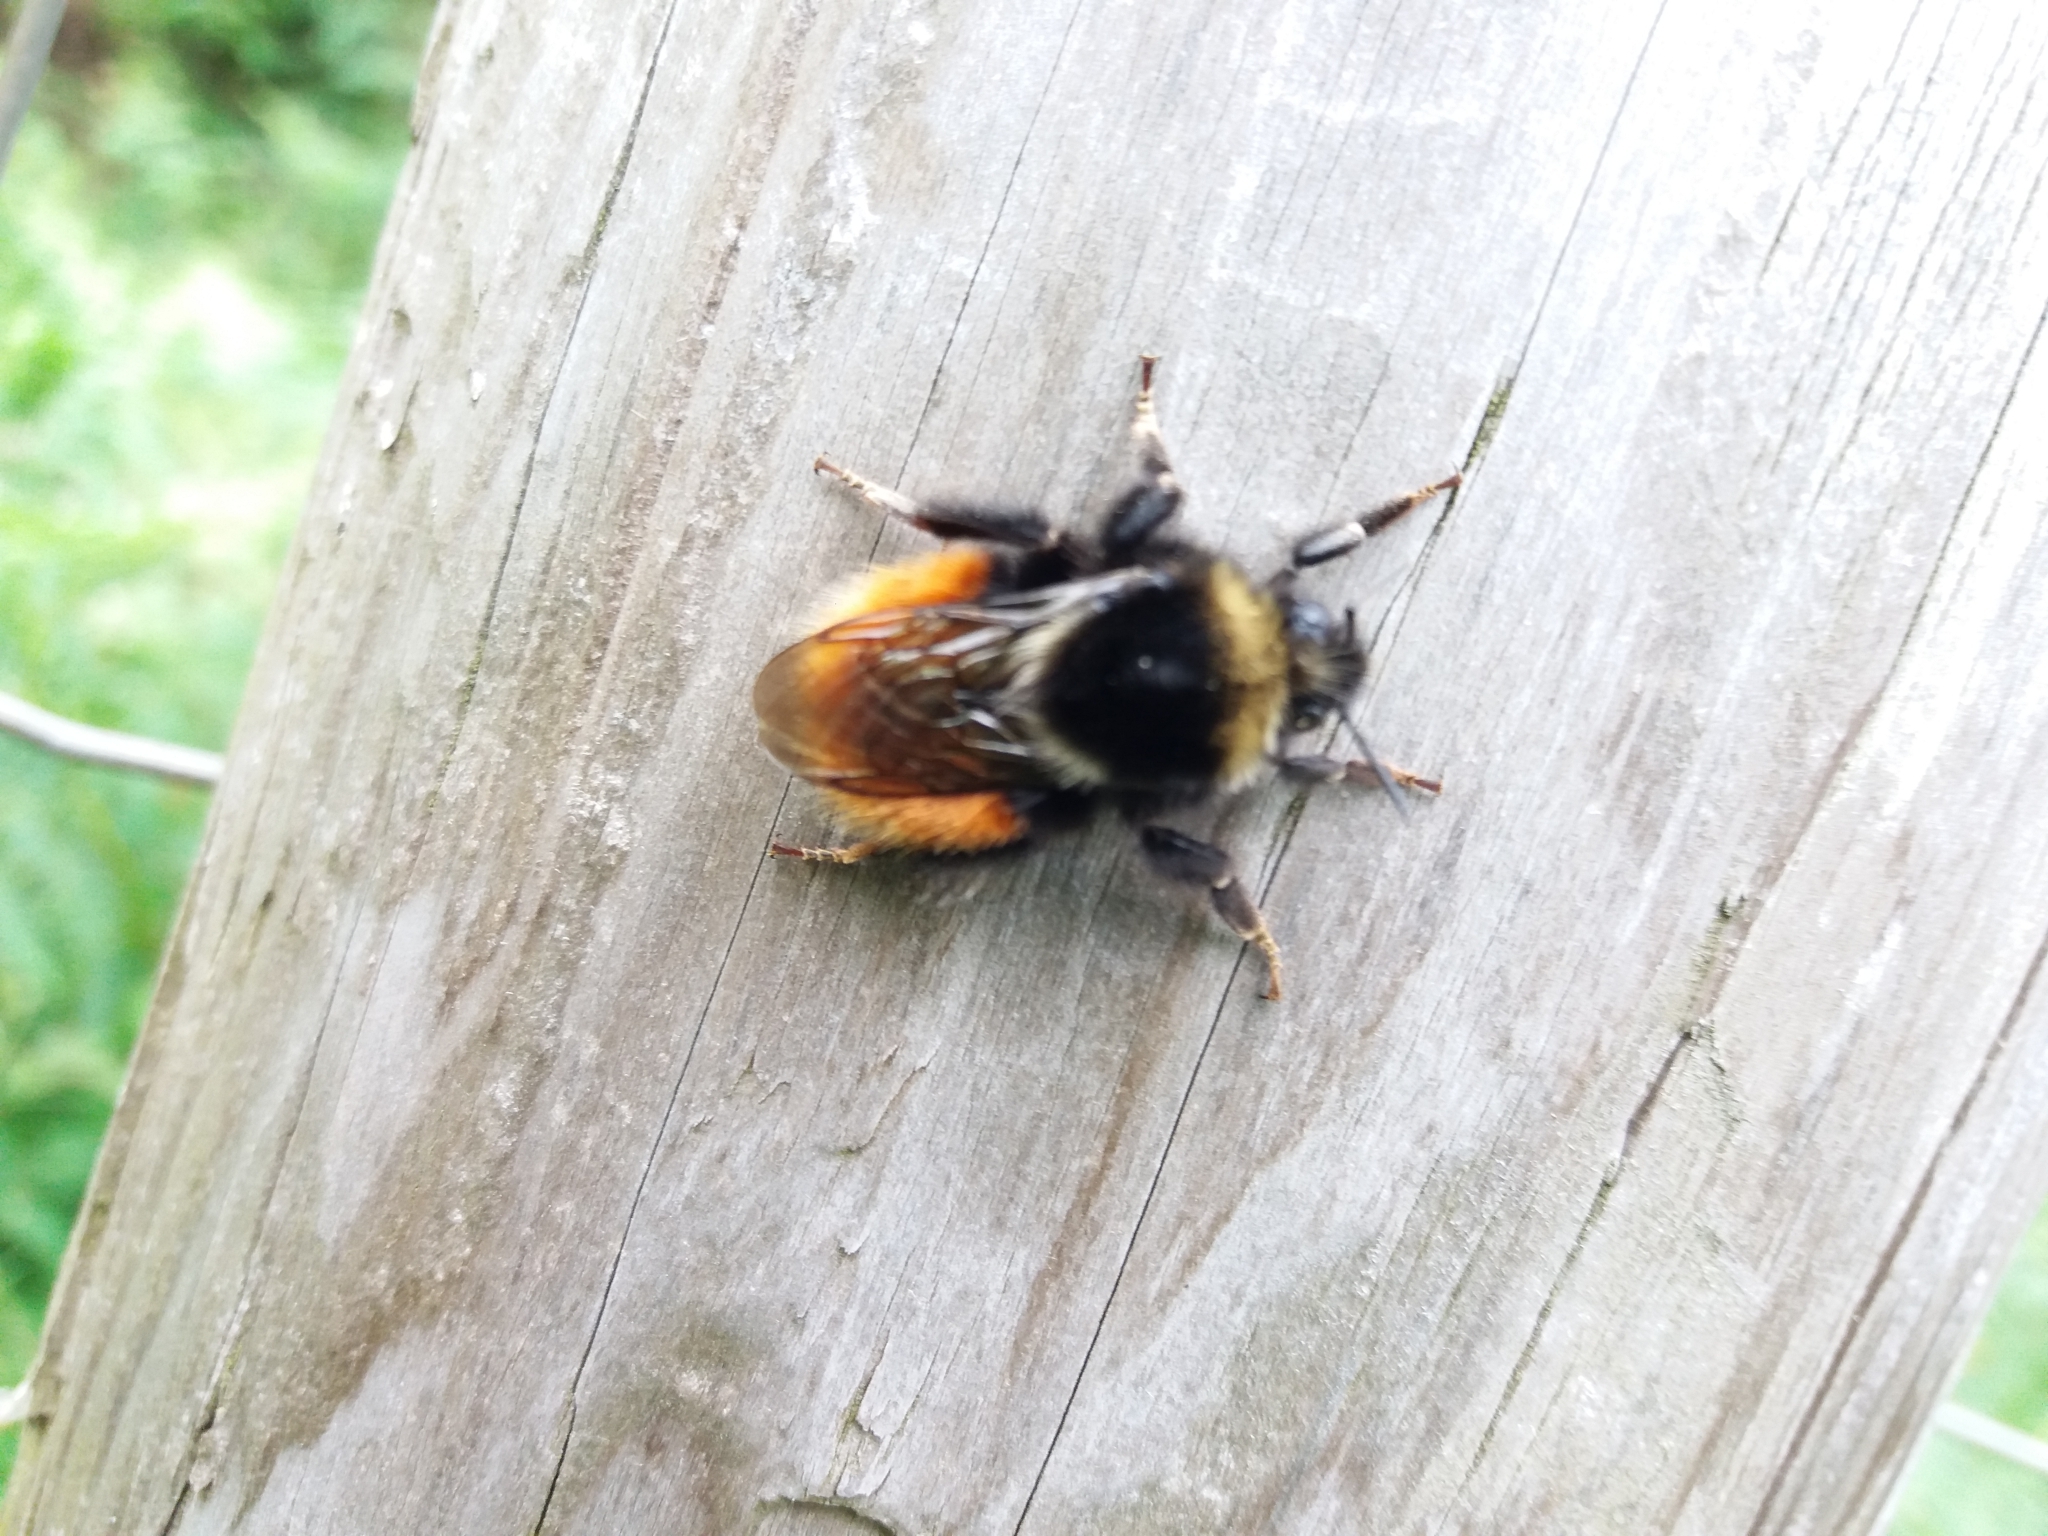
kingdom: Animalia
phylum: Arthropoda
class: Insecta
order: Hymenoptera
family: Apidae
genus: Bombus
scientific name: Bombus monticola
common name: Bilberry humble-bee
